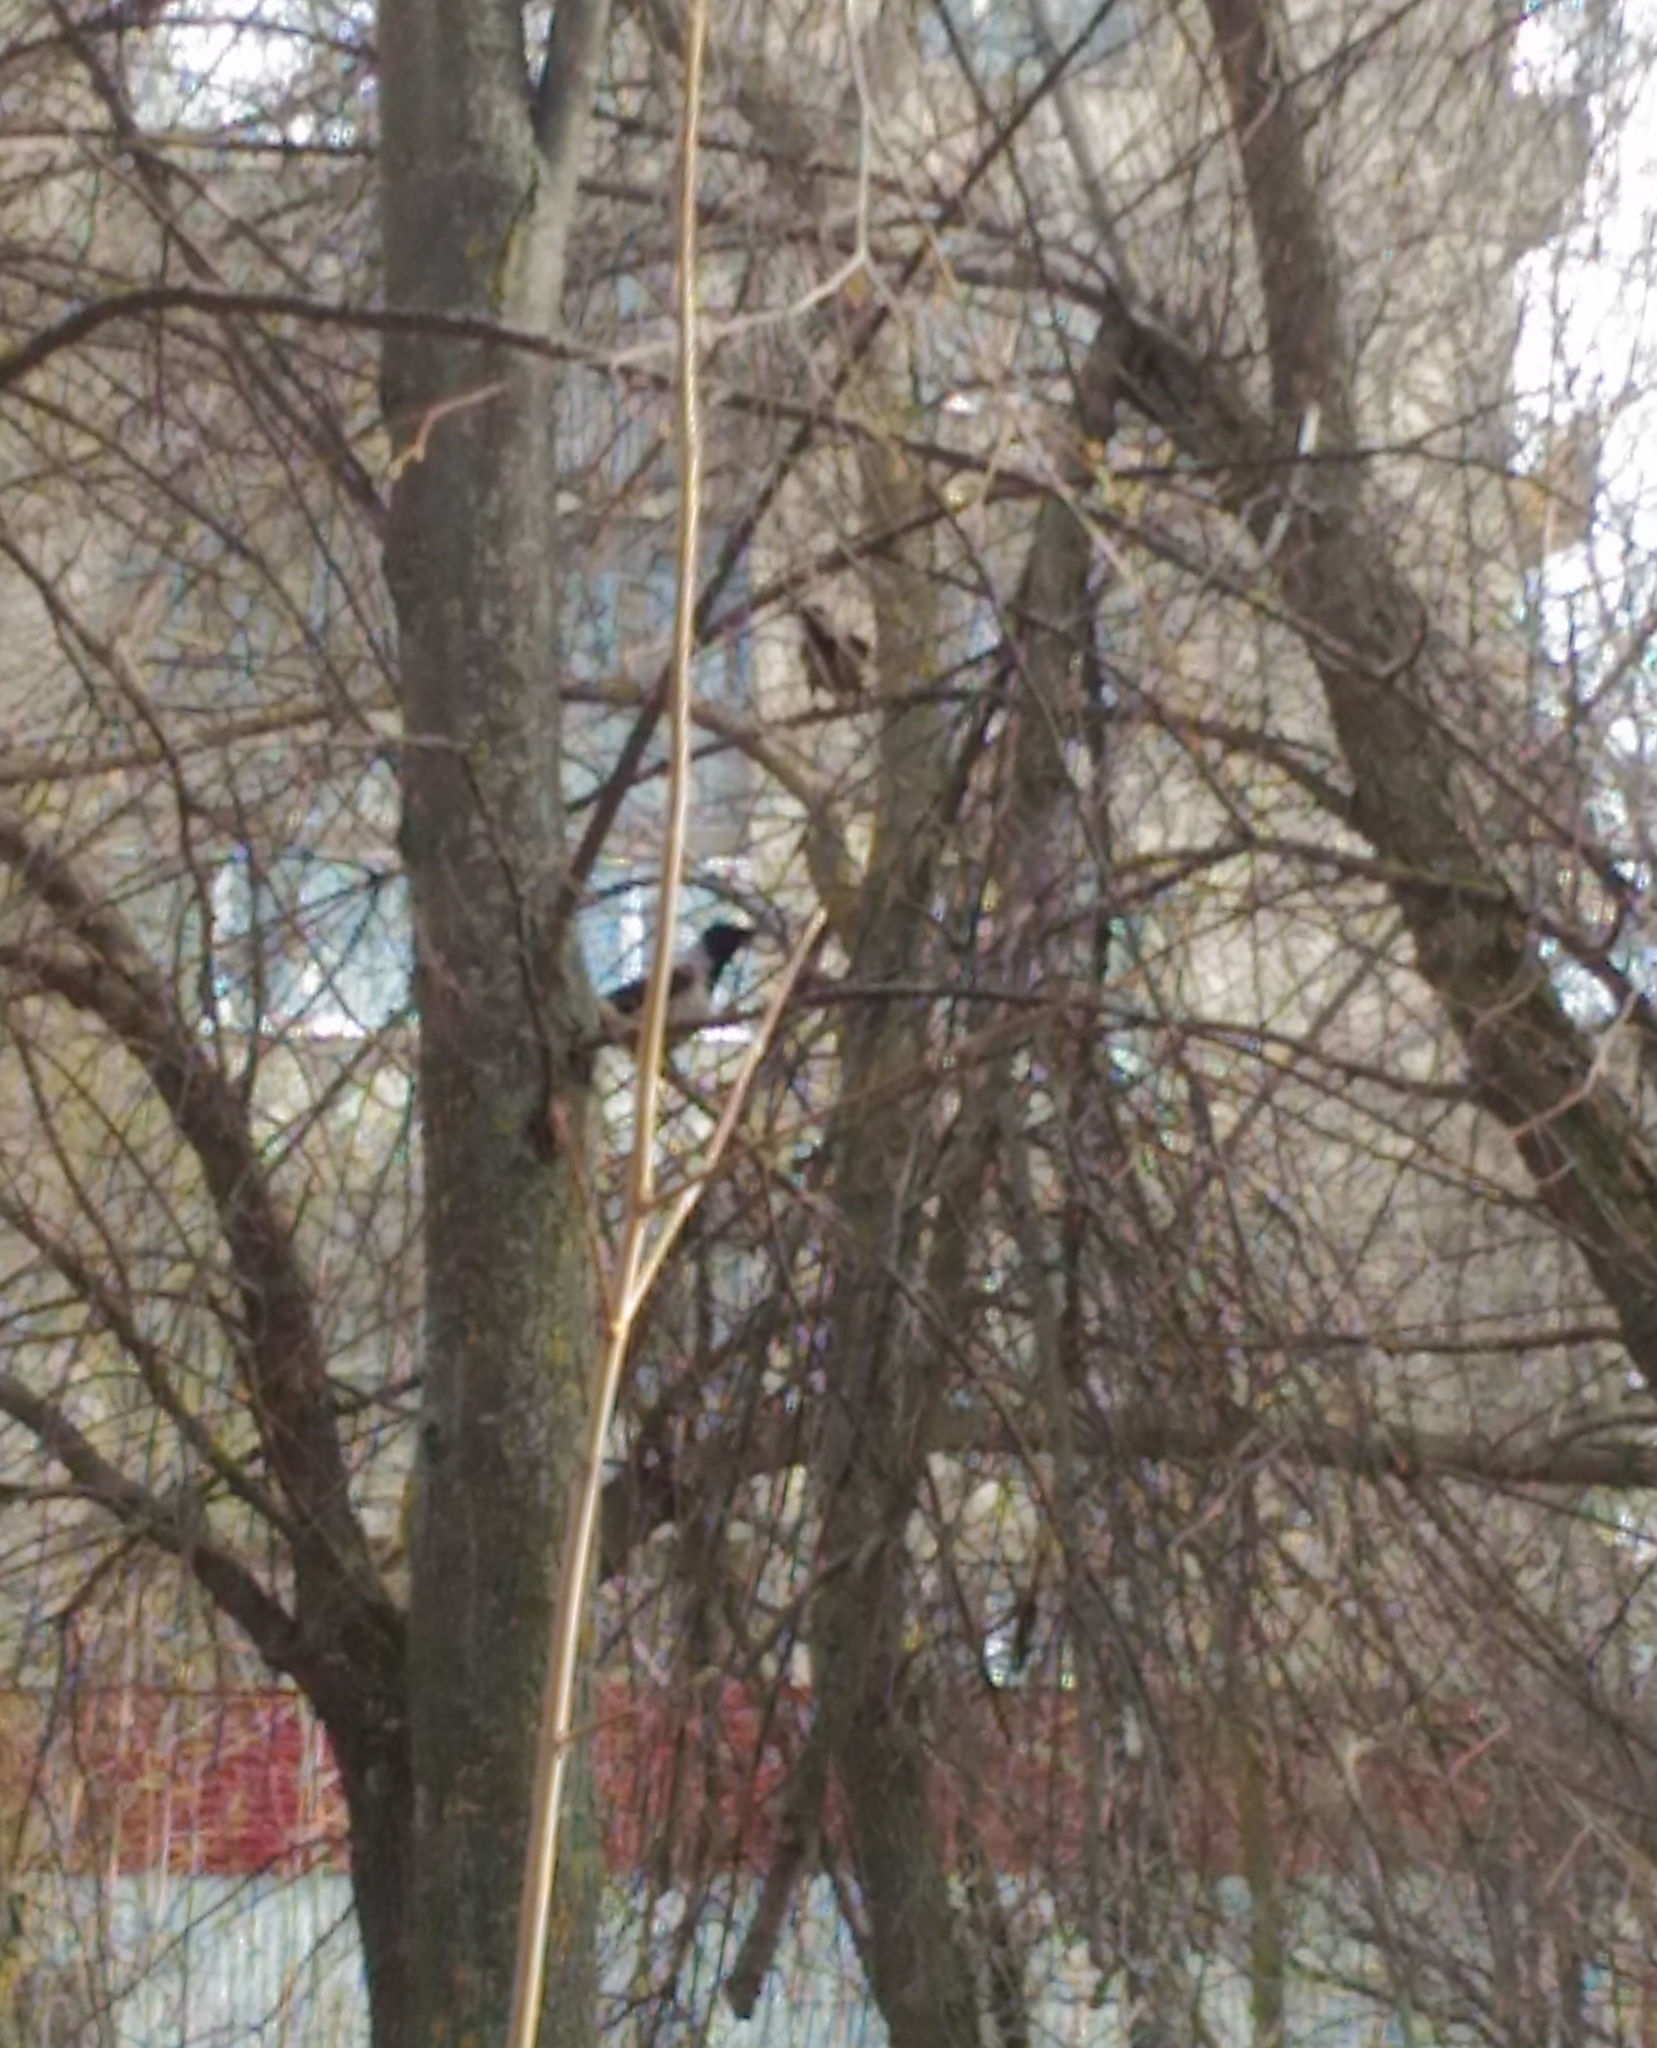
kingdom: Animalia
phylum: Chordata
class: Aves
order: Passeriformes
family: Corvidae
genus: Corvus
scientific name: Corvus cornix
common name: Hooded crow
